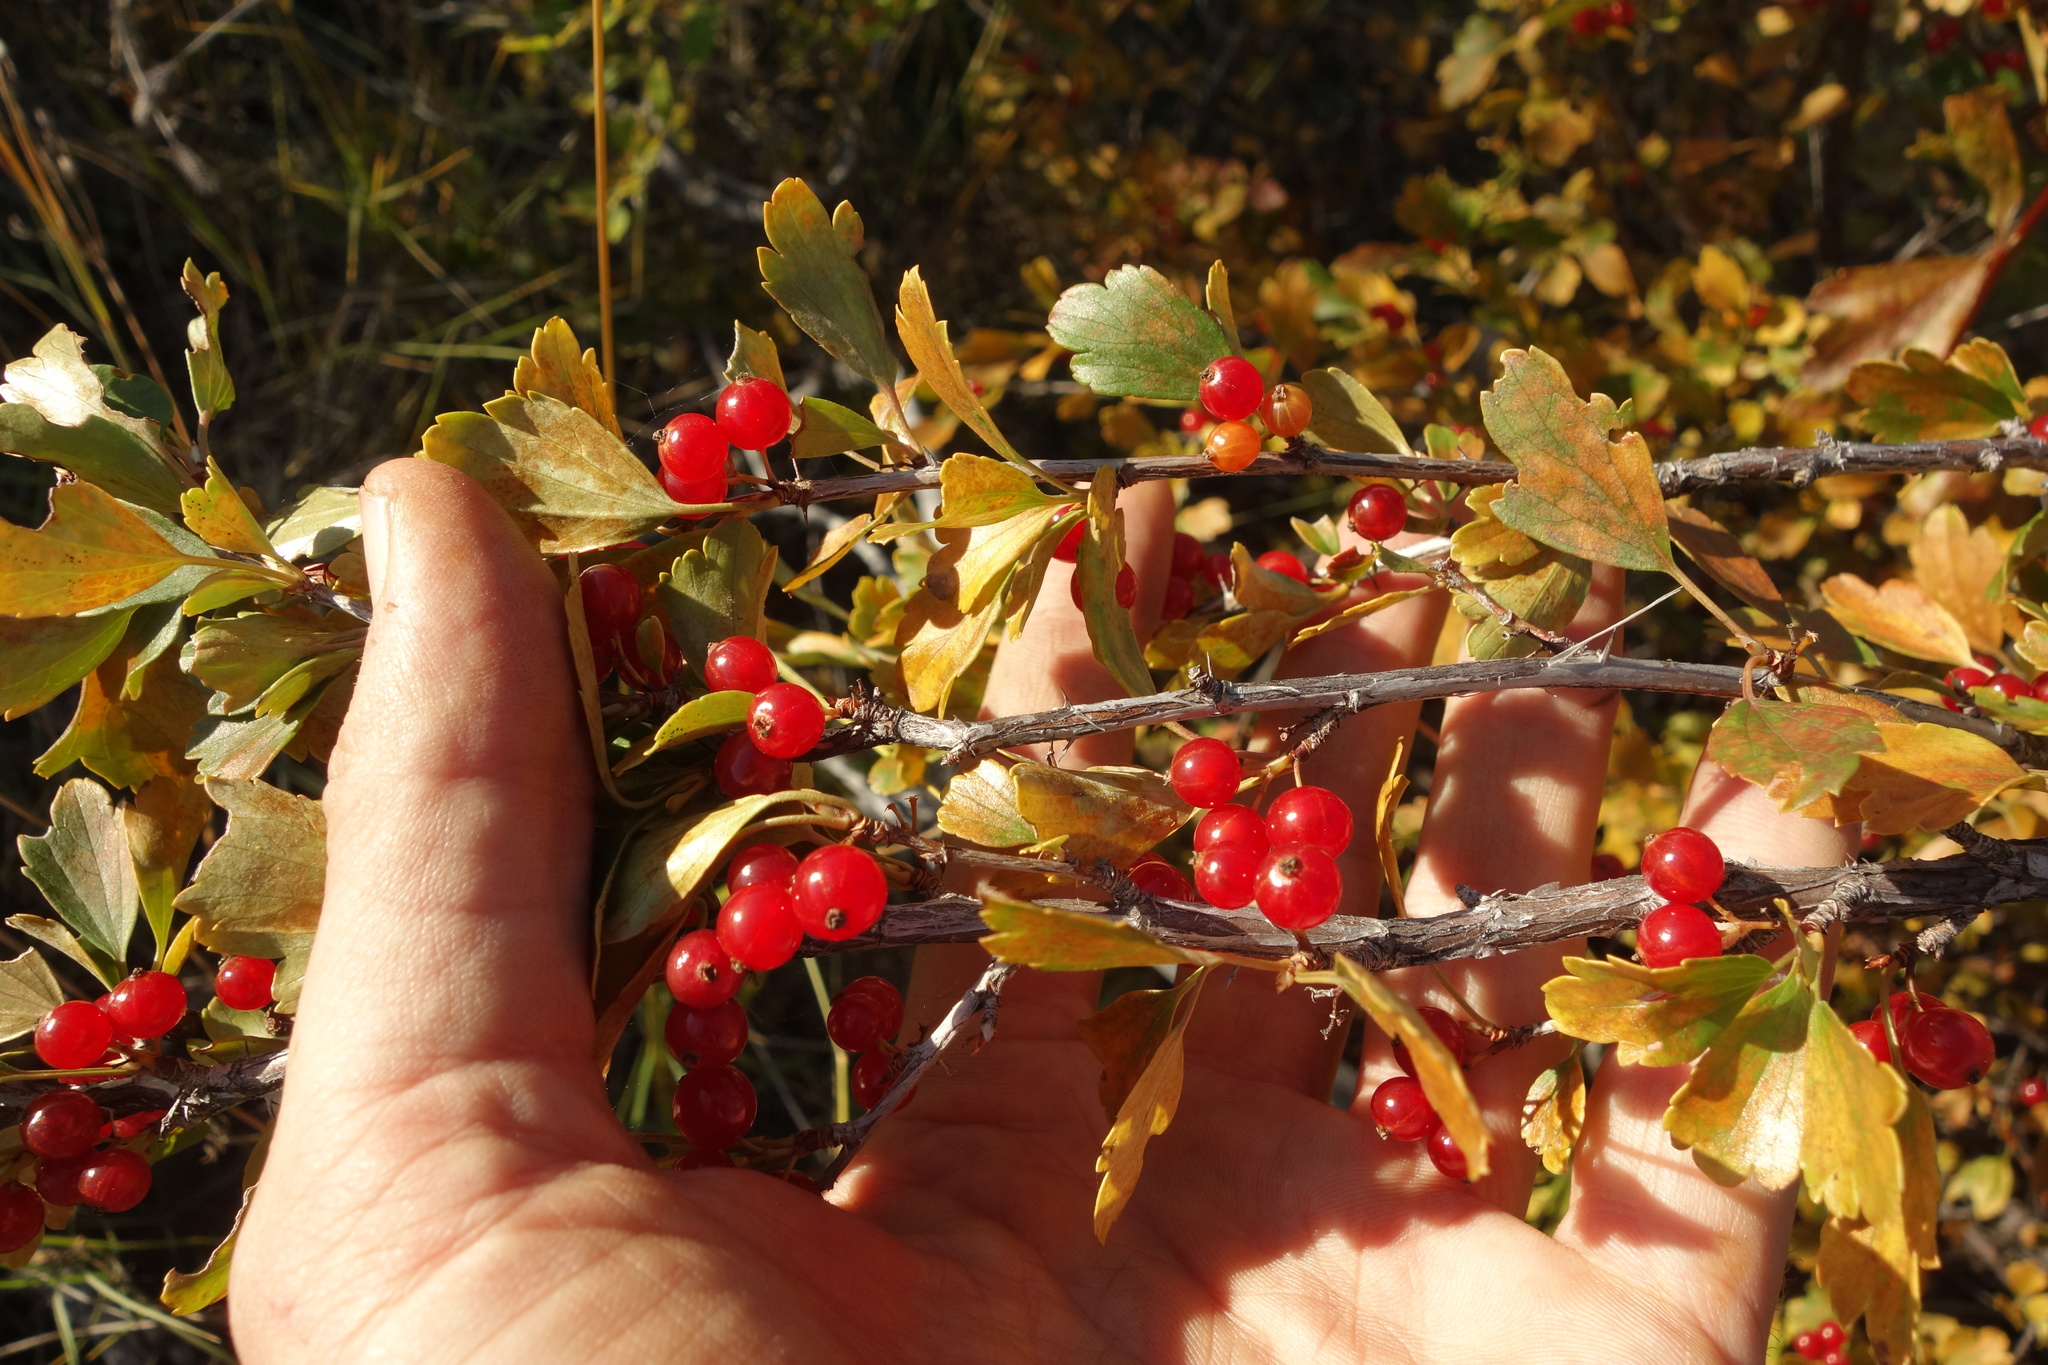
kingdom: Plantae
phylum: Tracheophyta
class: Magnoliopsida
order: Saxifragales
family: Grossulariaceae
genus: Ribes
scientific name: Ribes diacanthum
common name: Siberian currant
